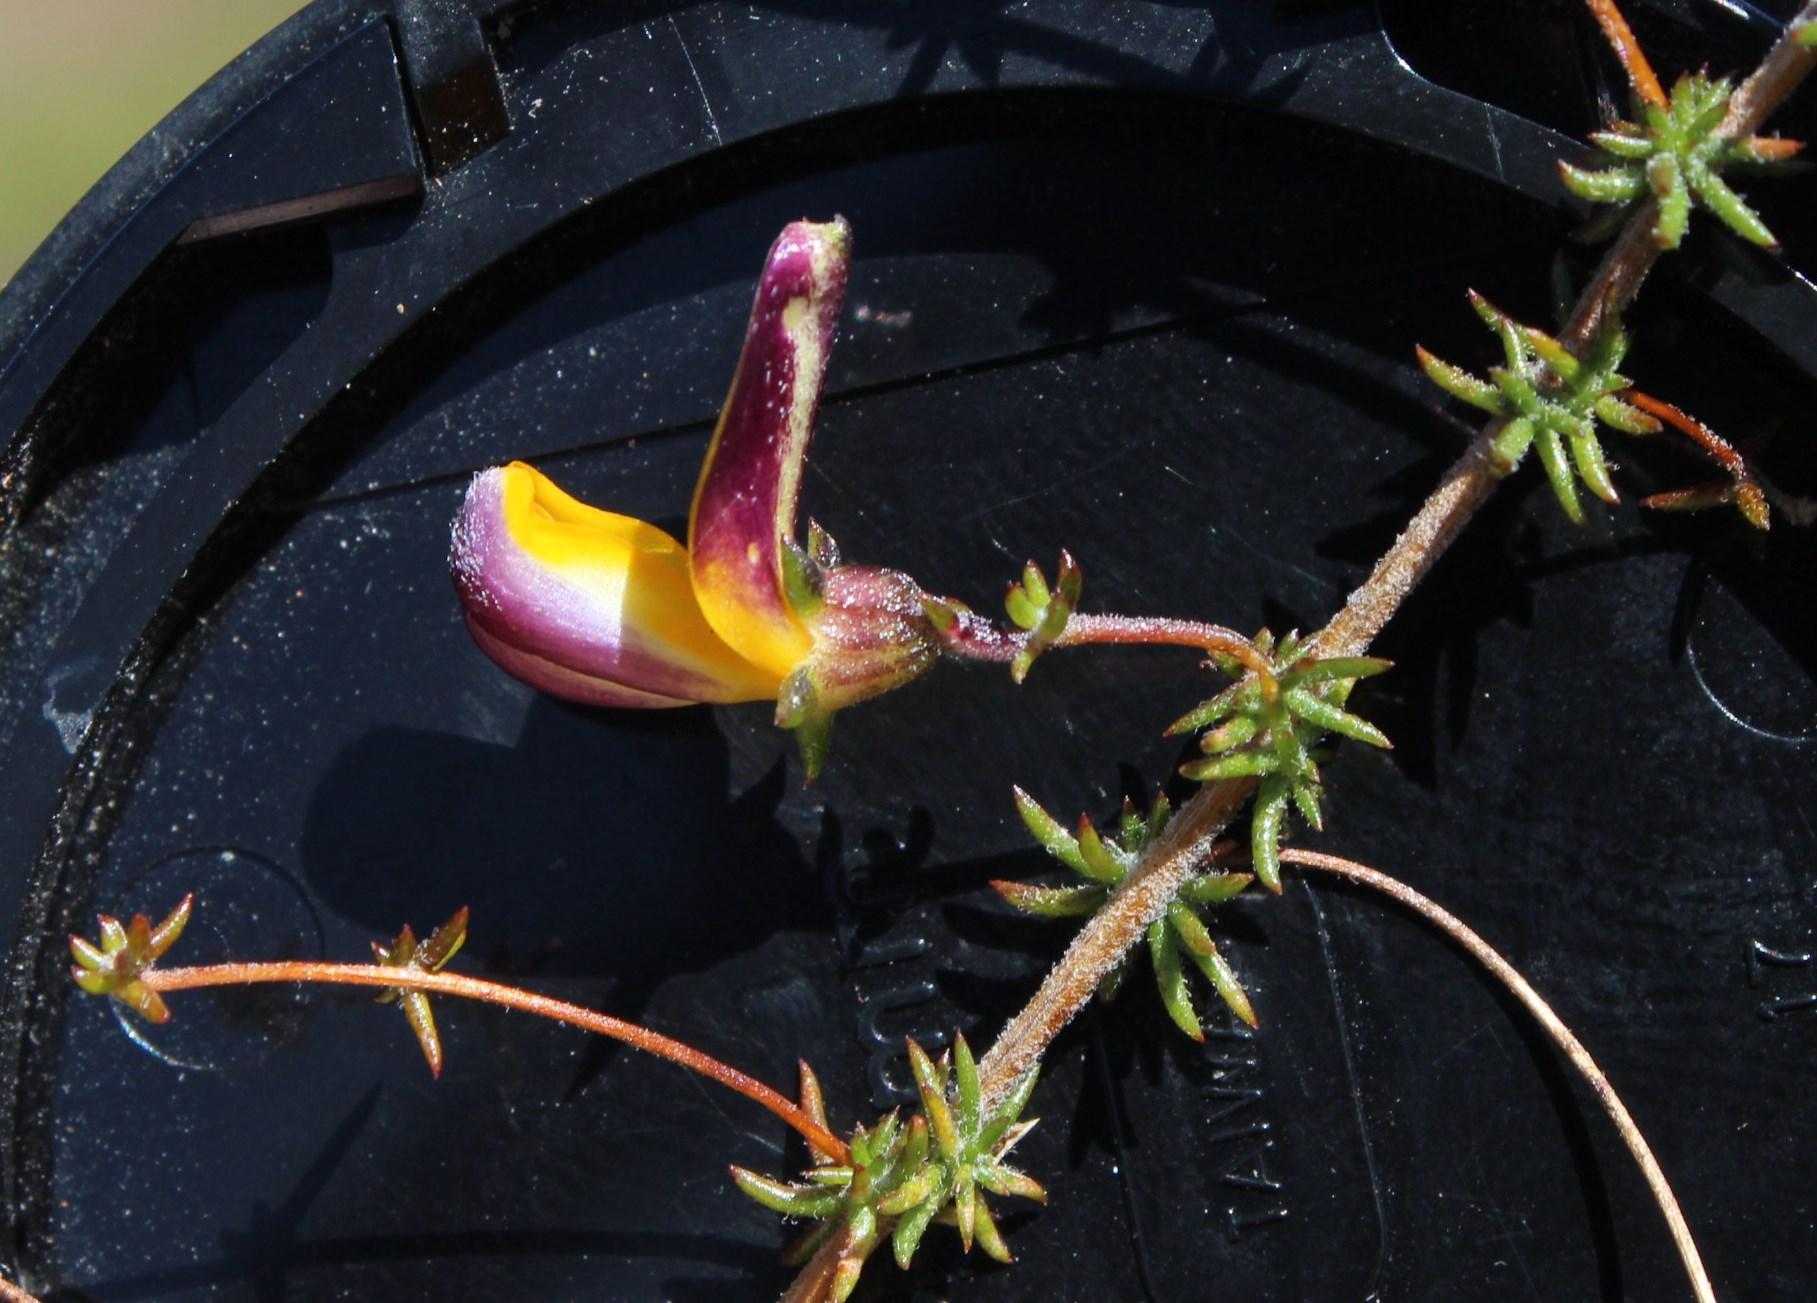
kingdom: Plantae
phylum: Tracheophyta
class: Magnoliopsida
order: Fabales
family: Fabaceae
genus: Aspalathus
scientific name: Aspalathus retroflexa
